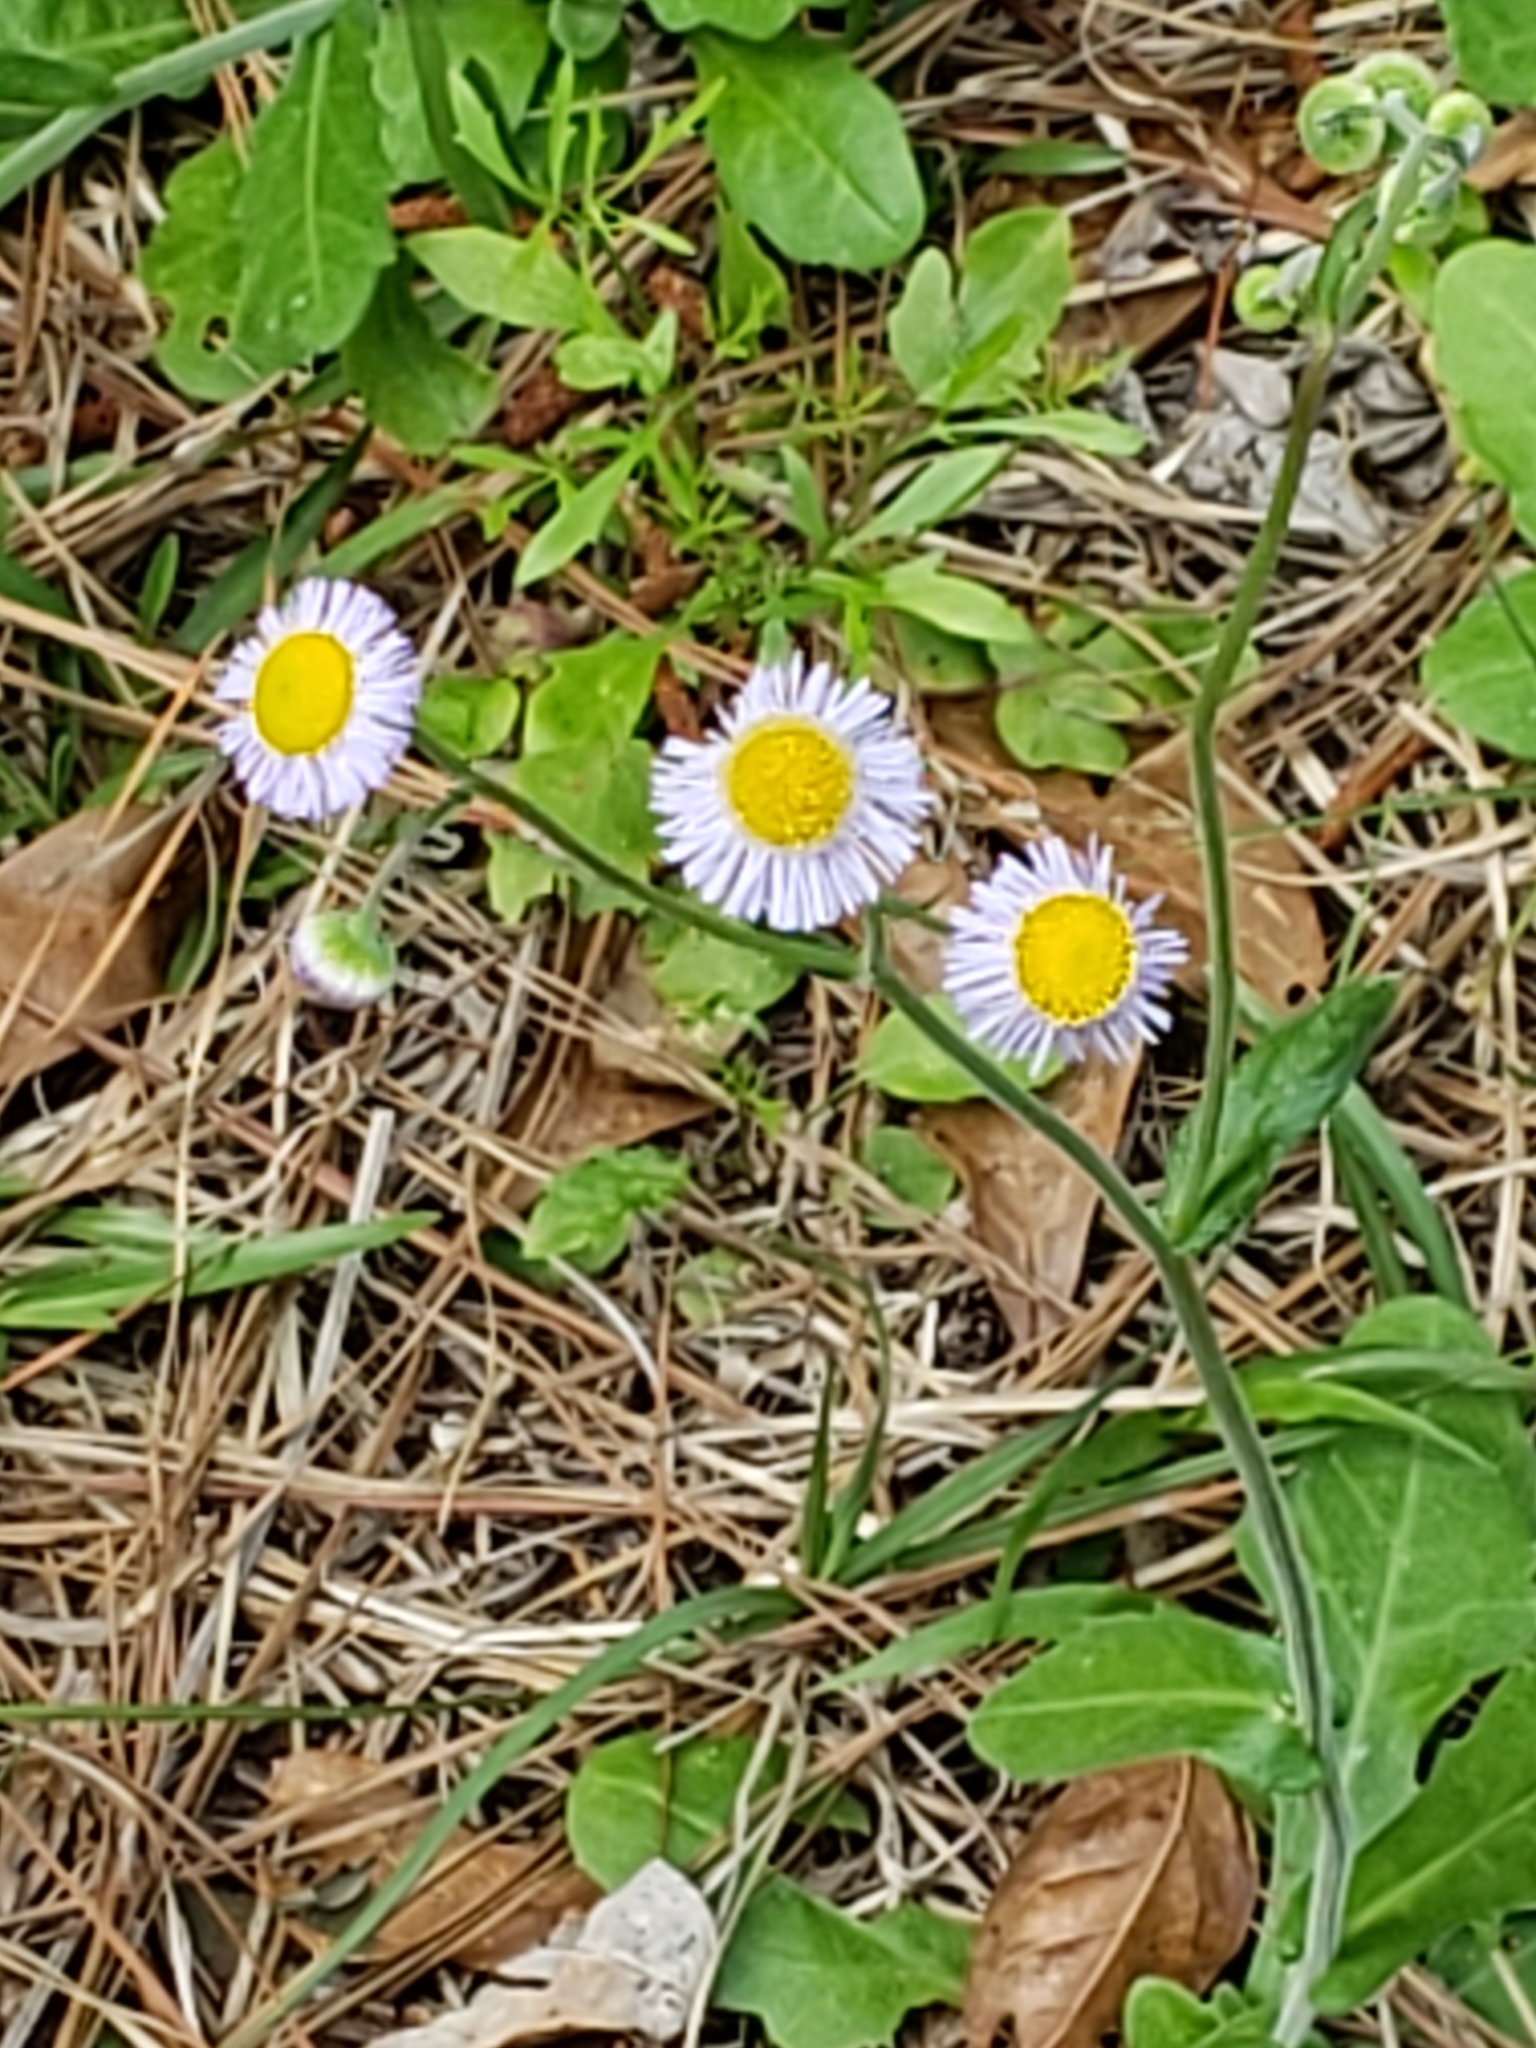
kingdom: Plantae
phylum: Tracheophyta
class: Magnoliopsida
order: Asterales
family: Asteraceae
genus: Erigeron
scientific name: Erigeron quercifolius
